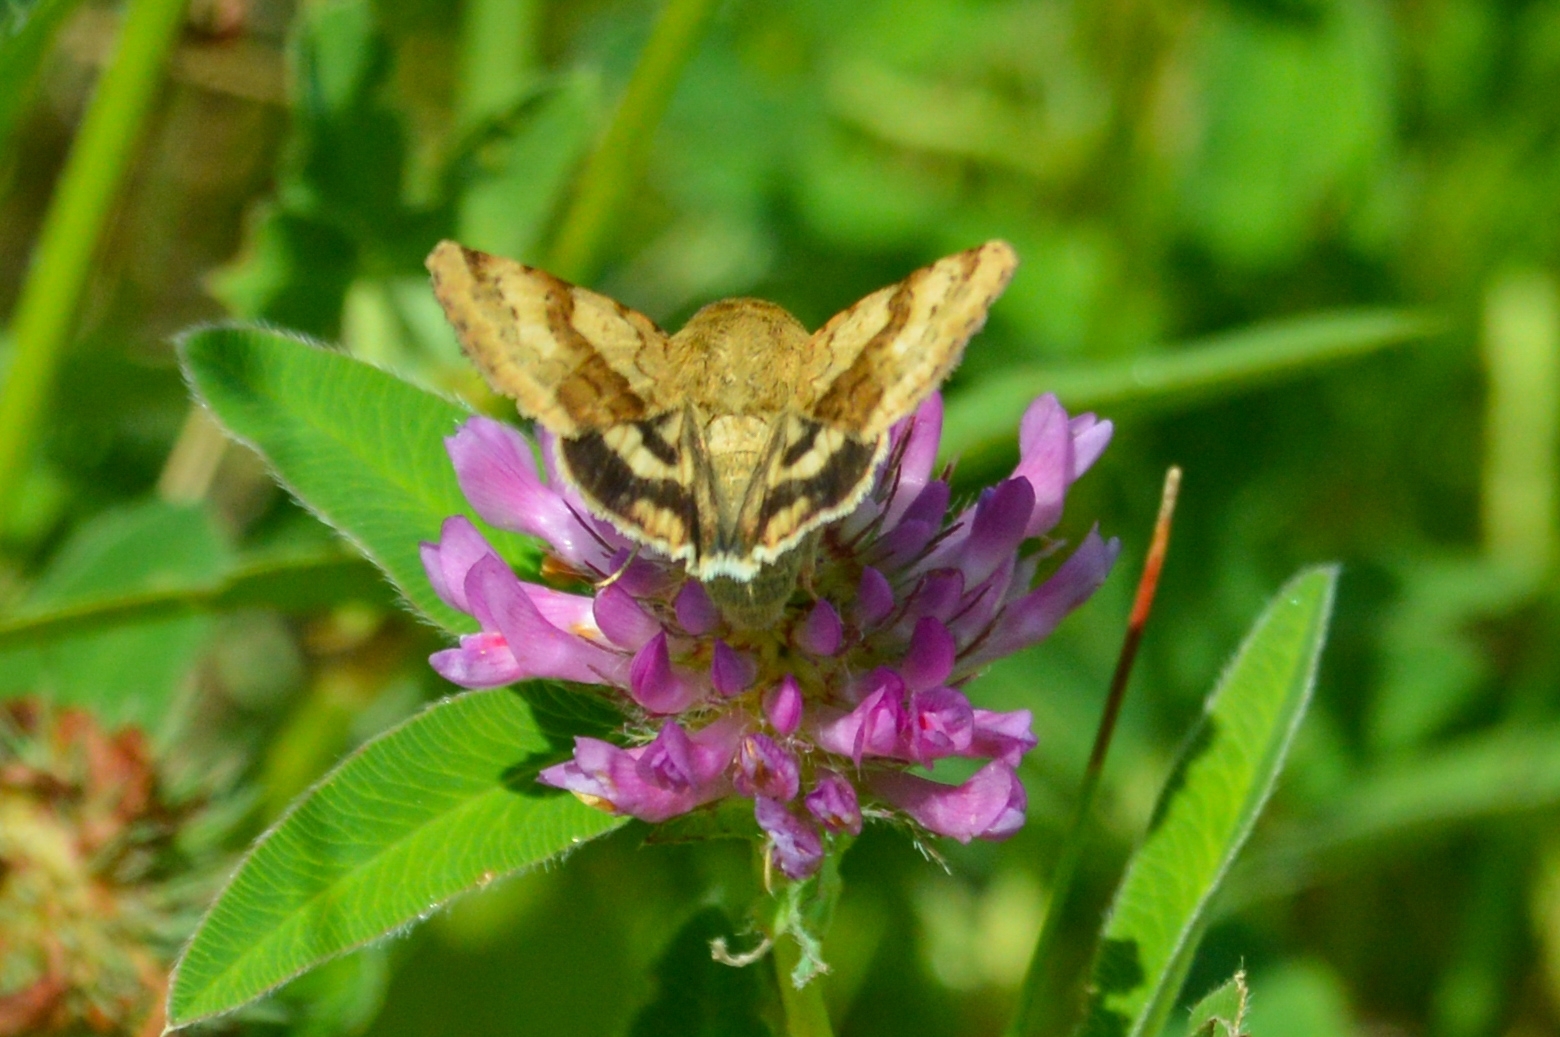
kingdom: Animalia
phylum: Arthropoda
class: Insecta
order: Lepidoptera
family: Noctuidae
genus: Heliothis
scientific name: Heliothis viriplaca
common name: Marbled clover
